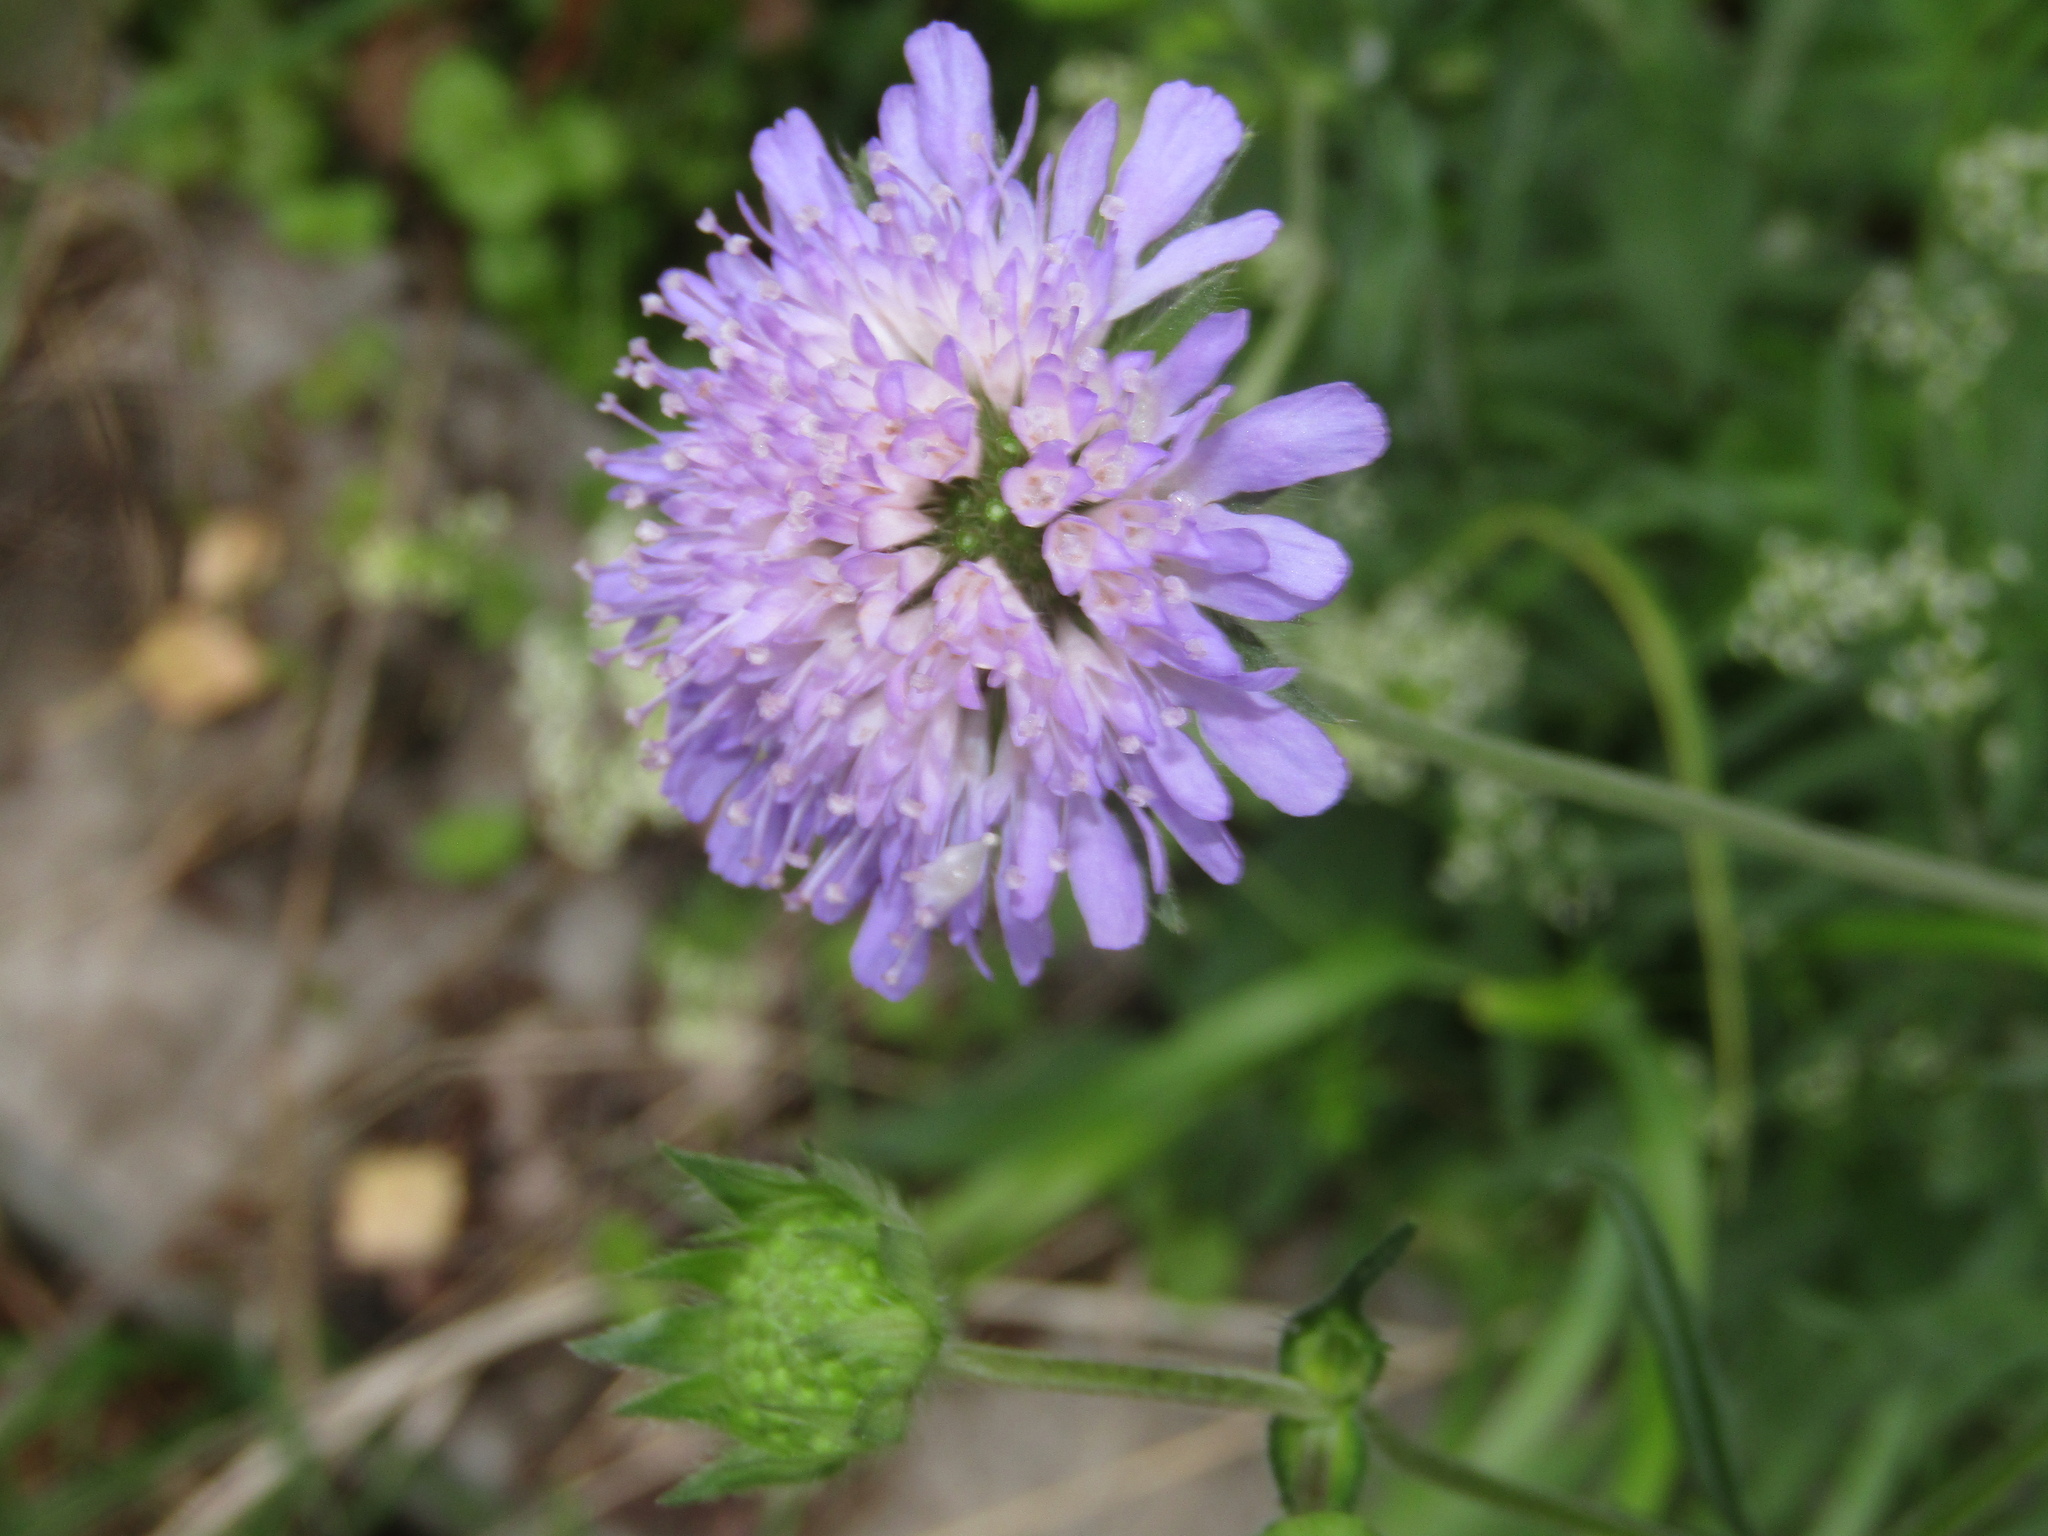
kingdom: Plantae
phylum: Tracheophyta
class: Magnoliopsida
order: Dipsacales
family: Caprifoliaceae
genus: Knautia
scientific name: Knautia arvensis
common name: Field scabiosa
